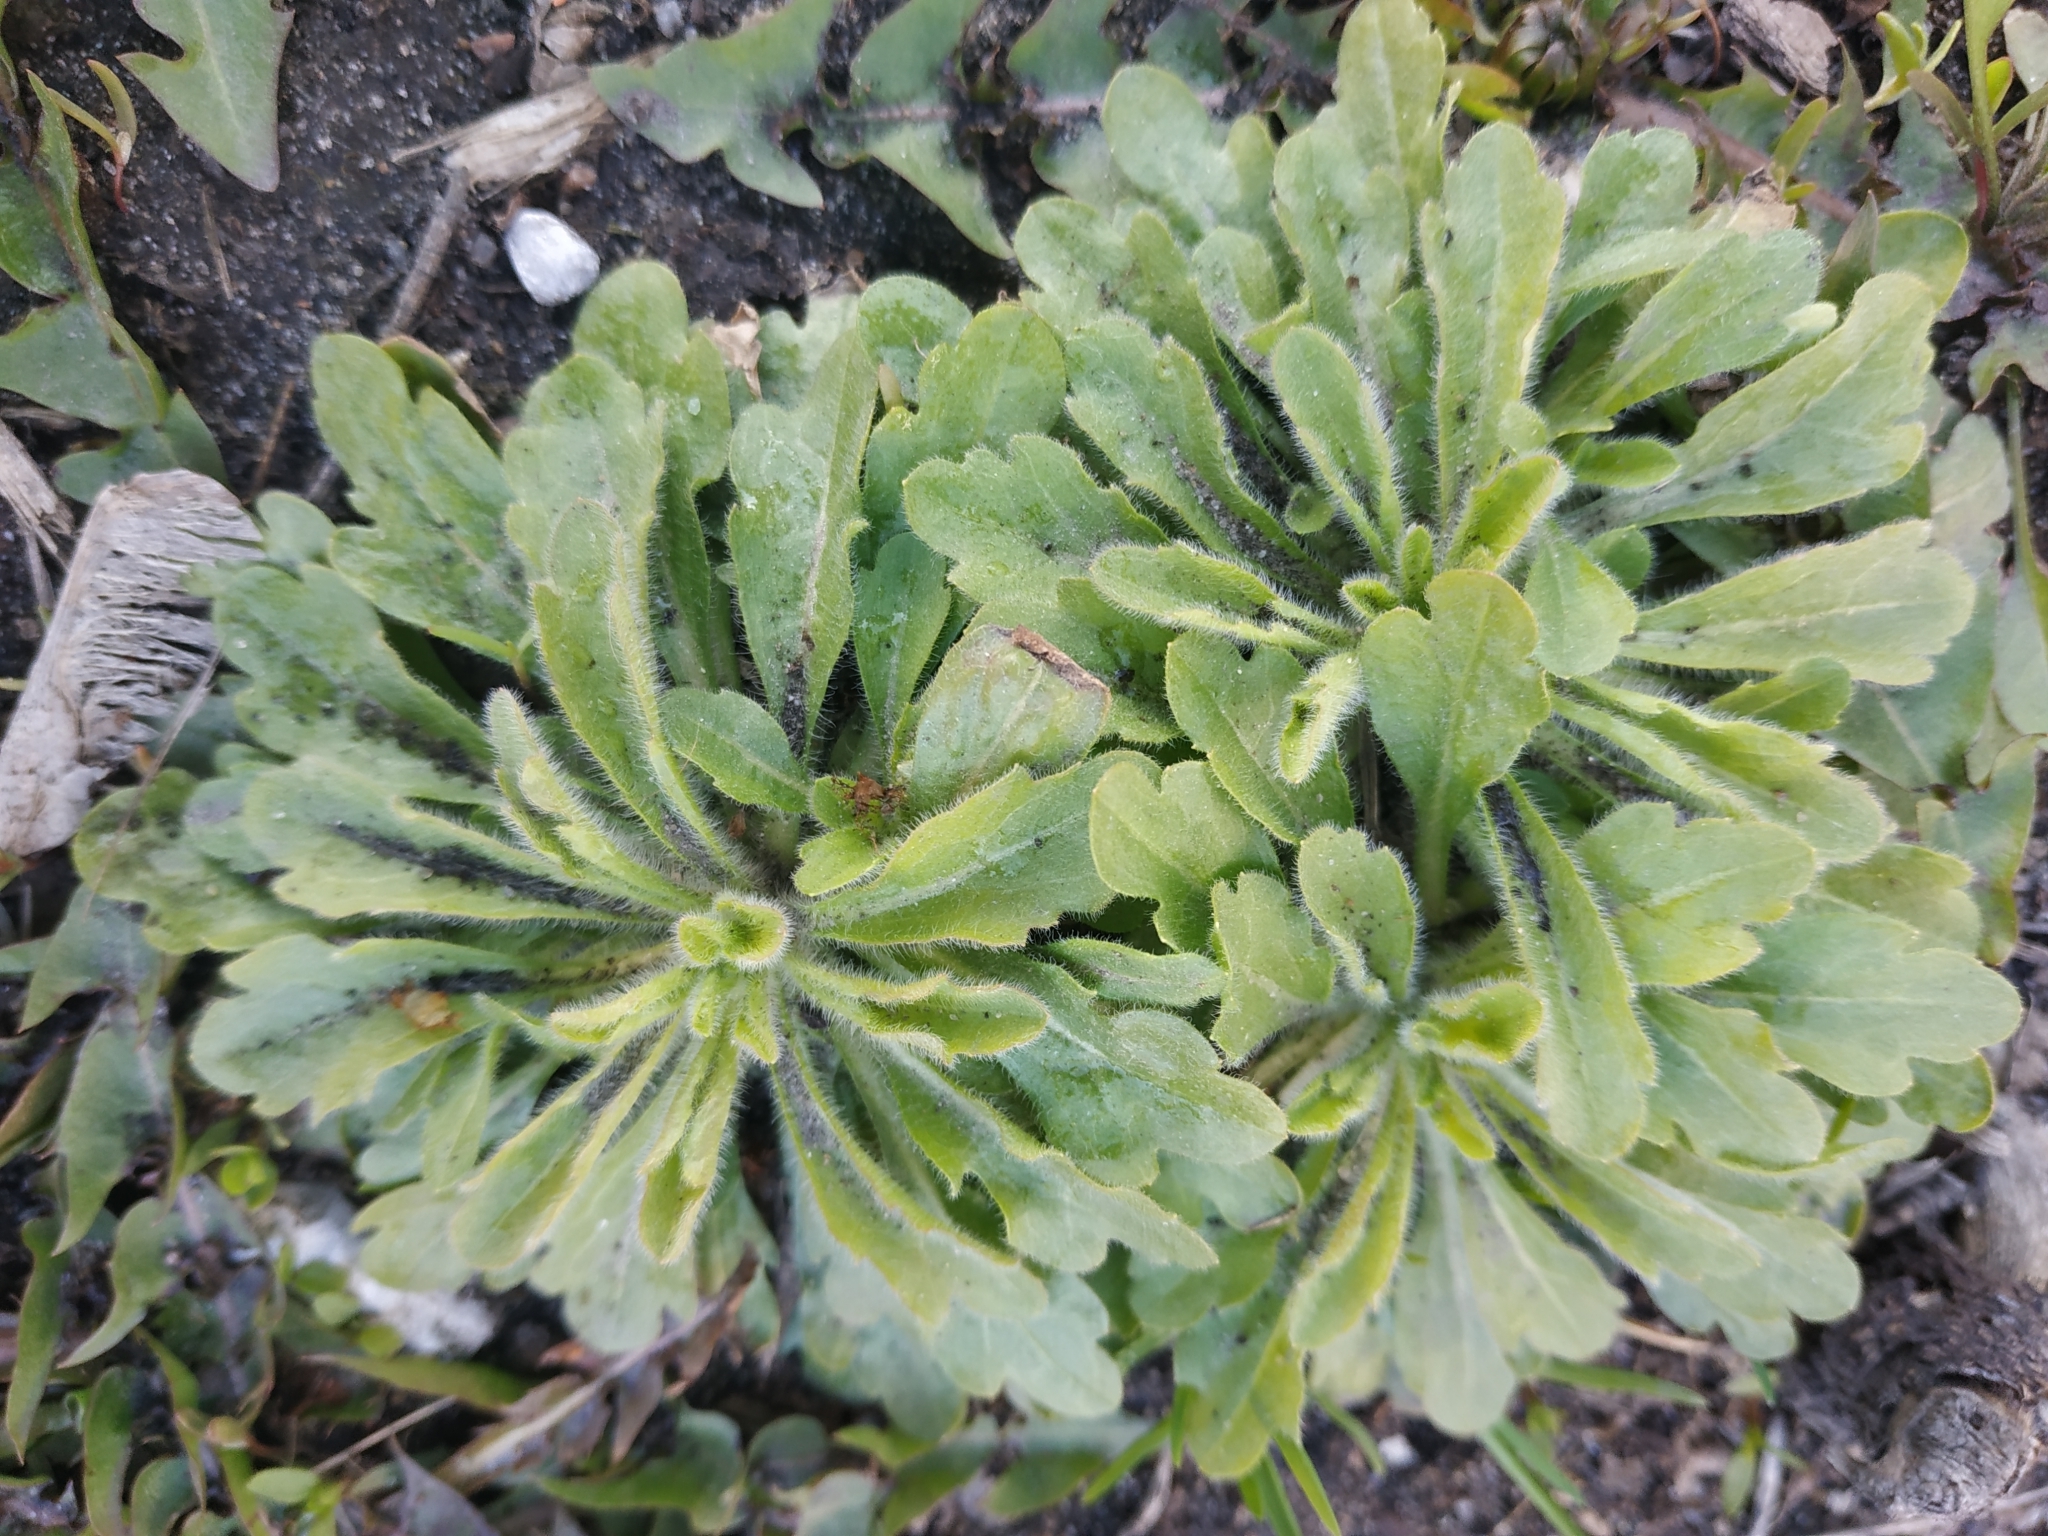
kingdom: Plantae
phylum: Tracheophyta
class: Magnoliopsida
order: Asterales
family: Asteraceae
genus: Erigeron
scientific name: Erigeron canadensis
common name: Canadian fleabane
